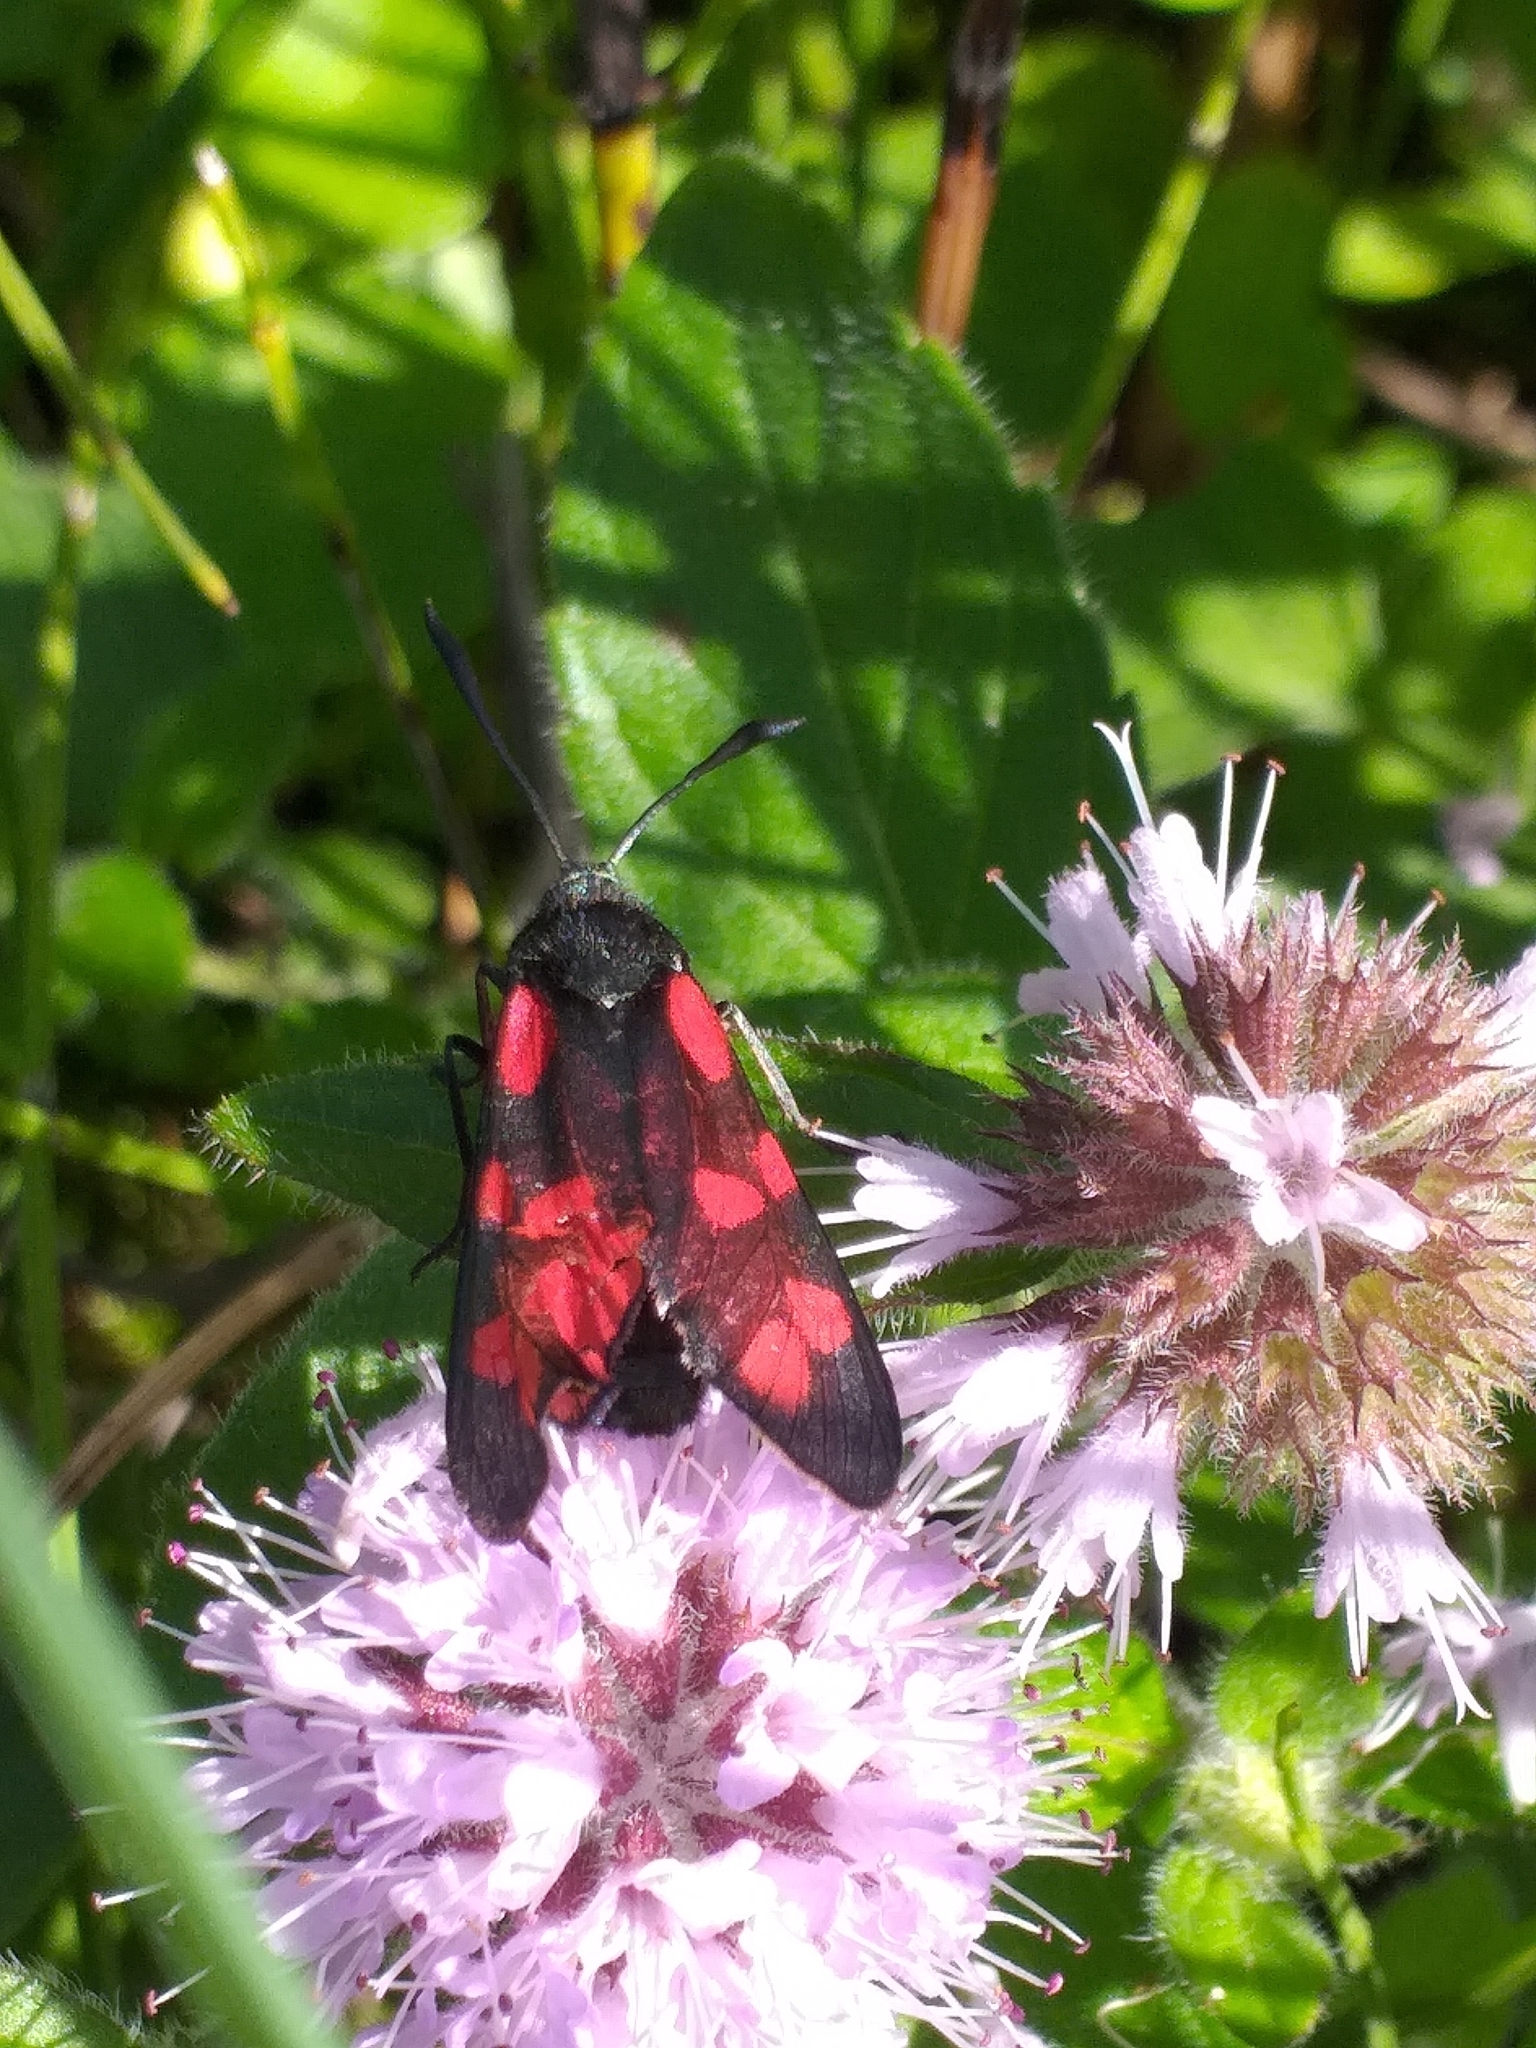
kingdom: Animalia
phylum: Arthropoda
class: Insecta
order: Lepidoptera
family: Zygaenidae
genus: Zygaena
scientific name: Zygaena filipendulae
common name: Six-spot burnet
